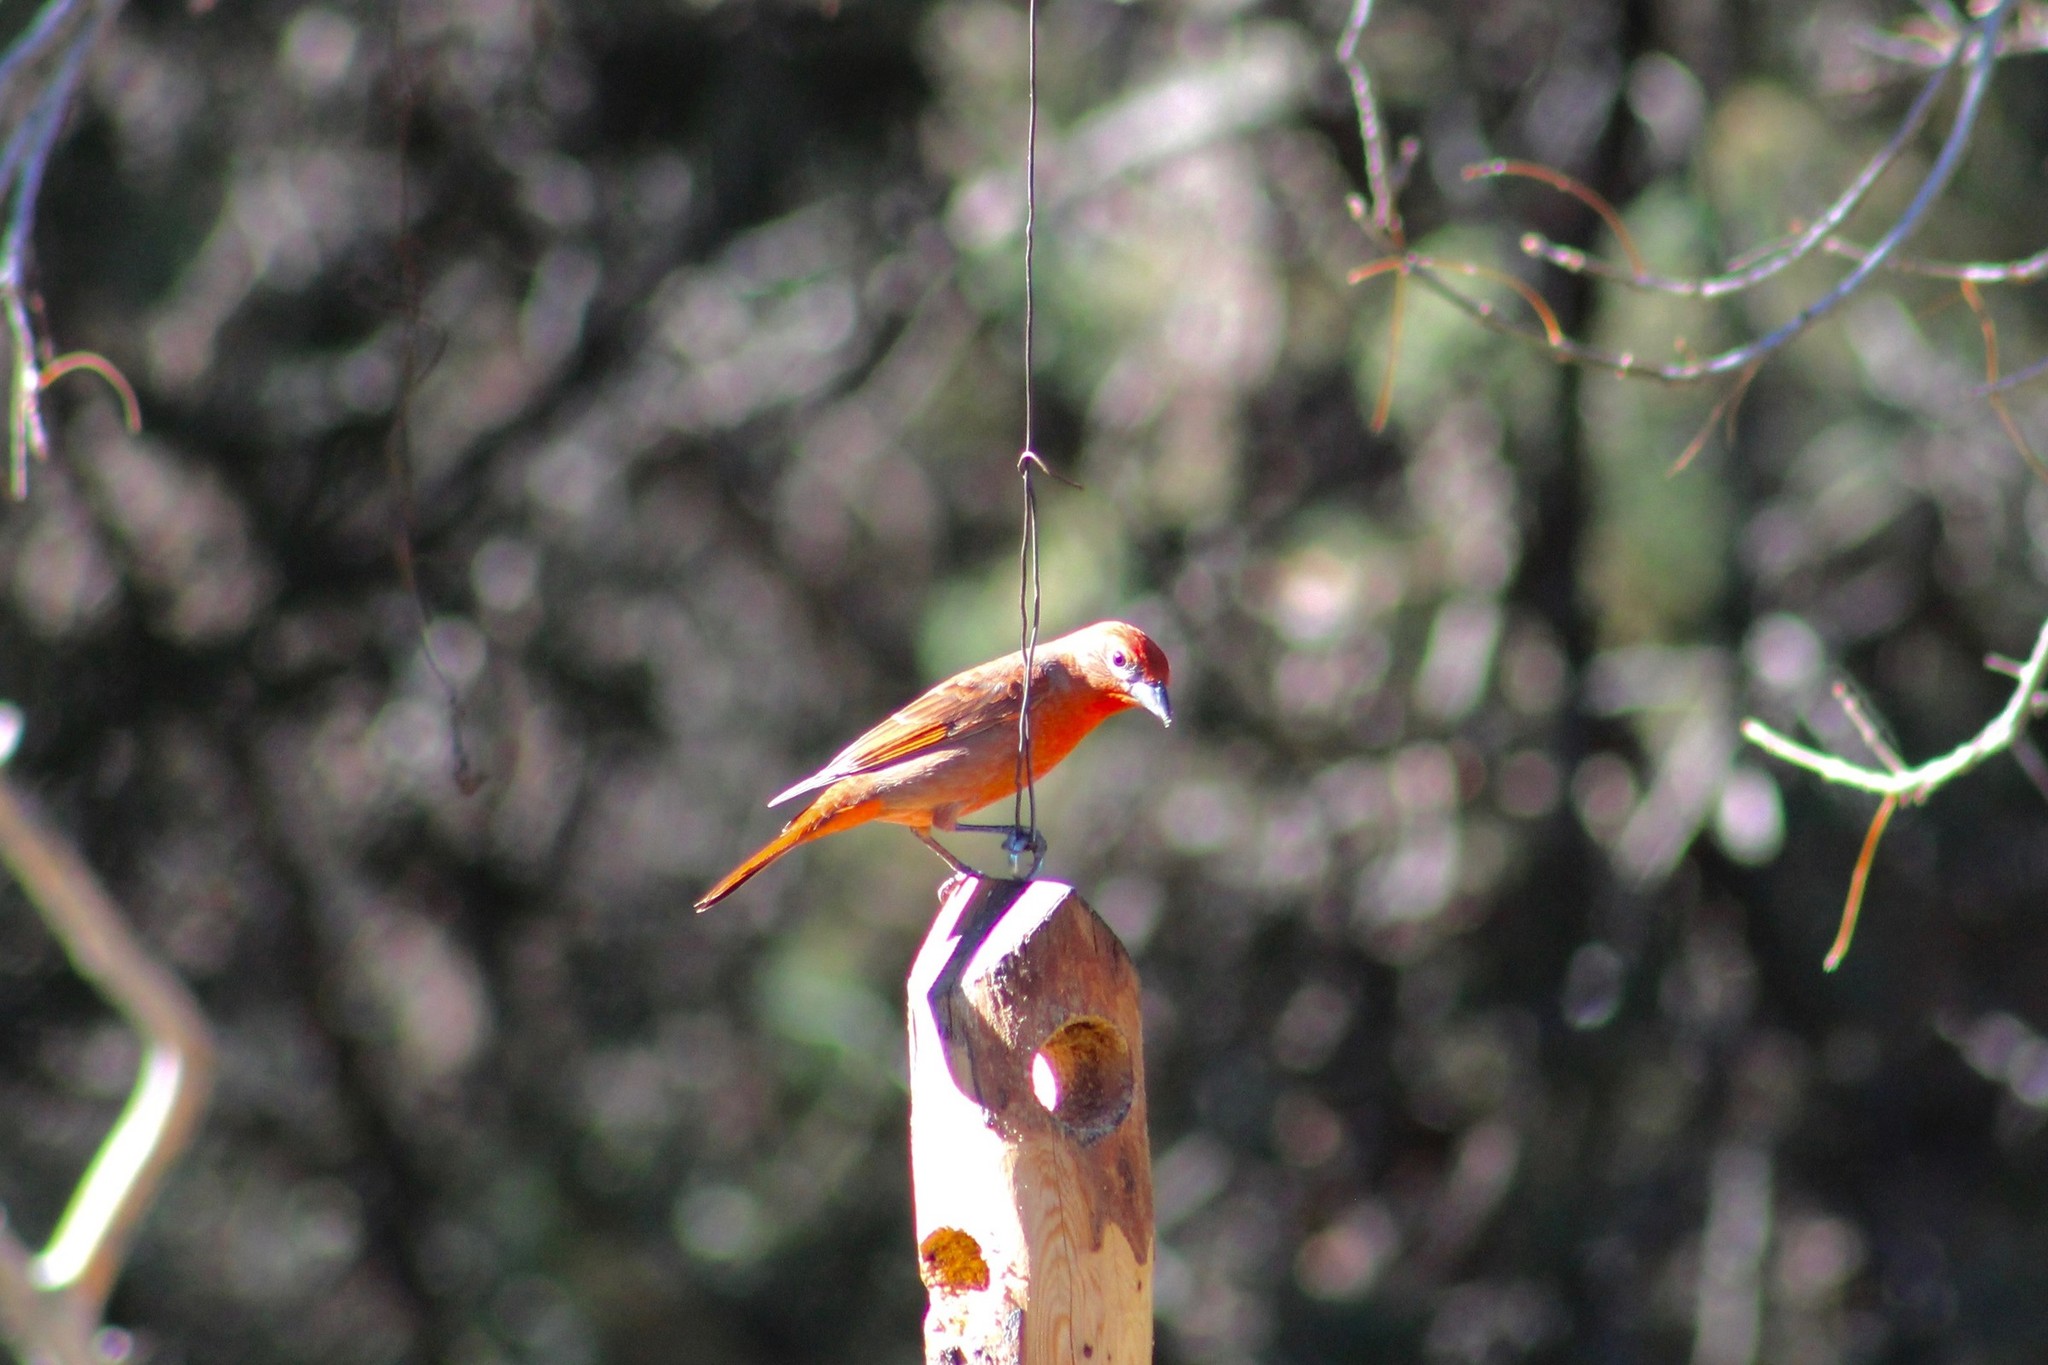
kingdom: Animalia
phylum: Chordata
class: Aves
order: Passeriformes
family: Cardinalidae
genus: Piranga
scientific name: Piranga flava
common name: Red tanager
